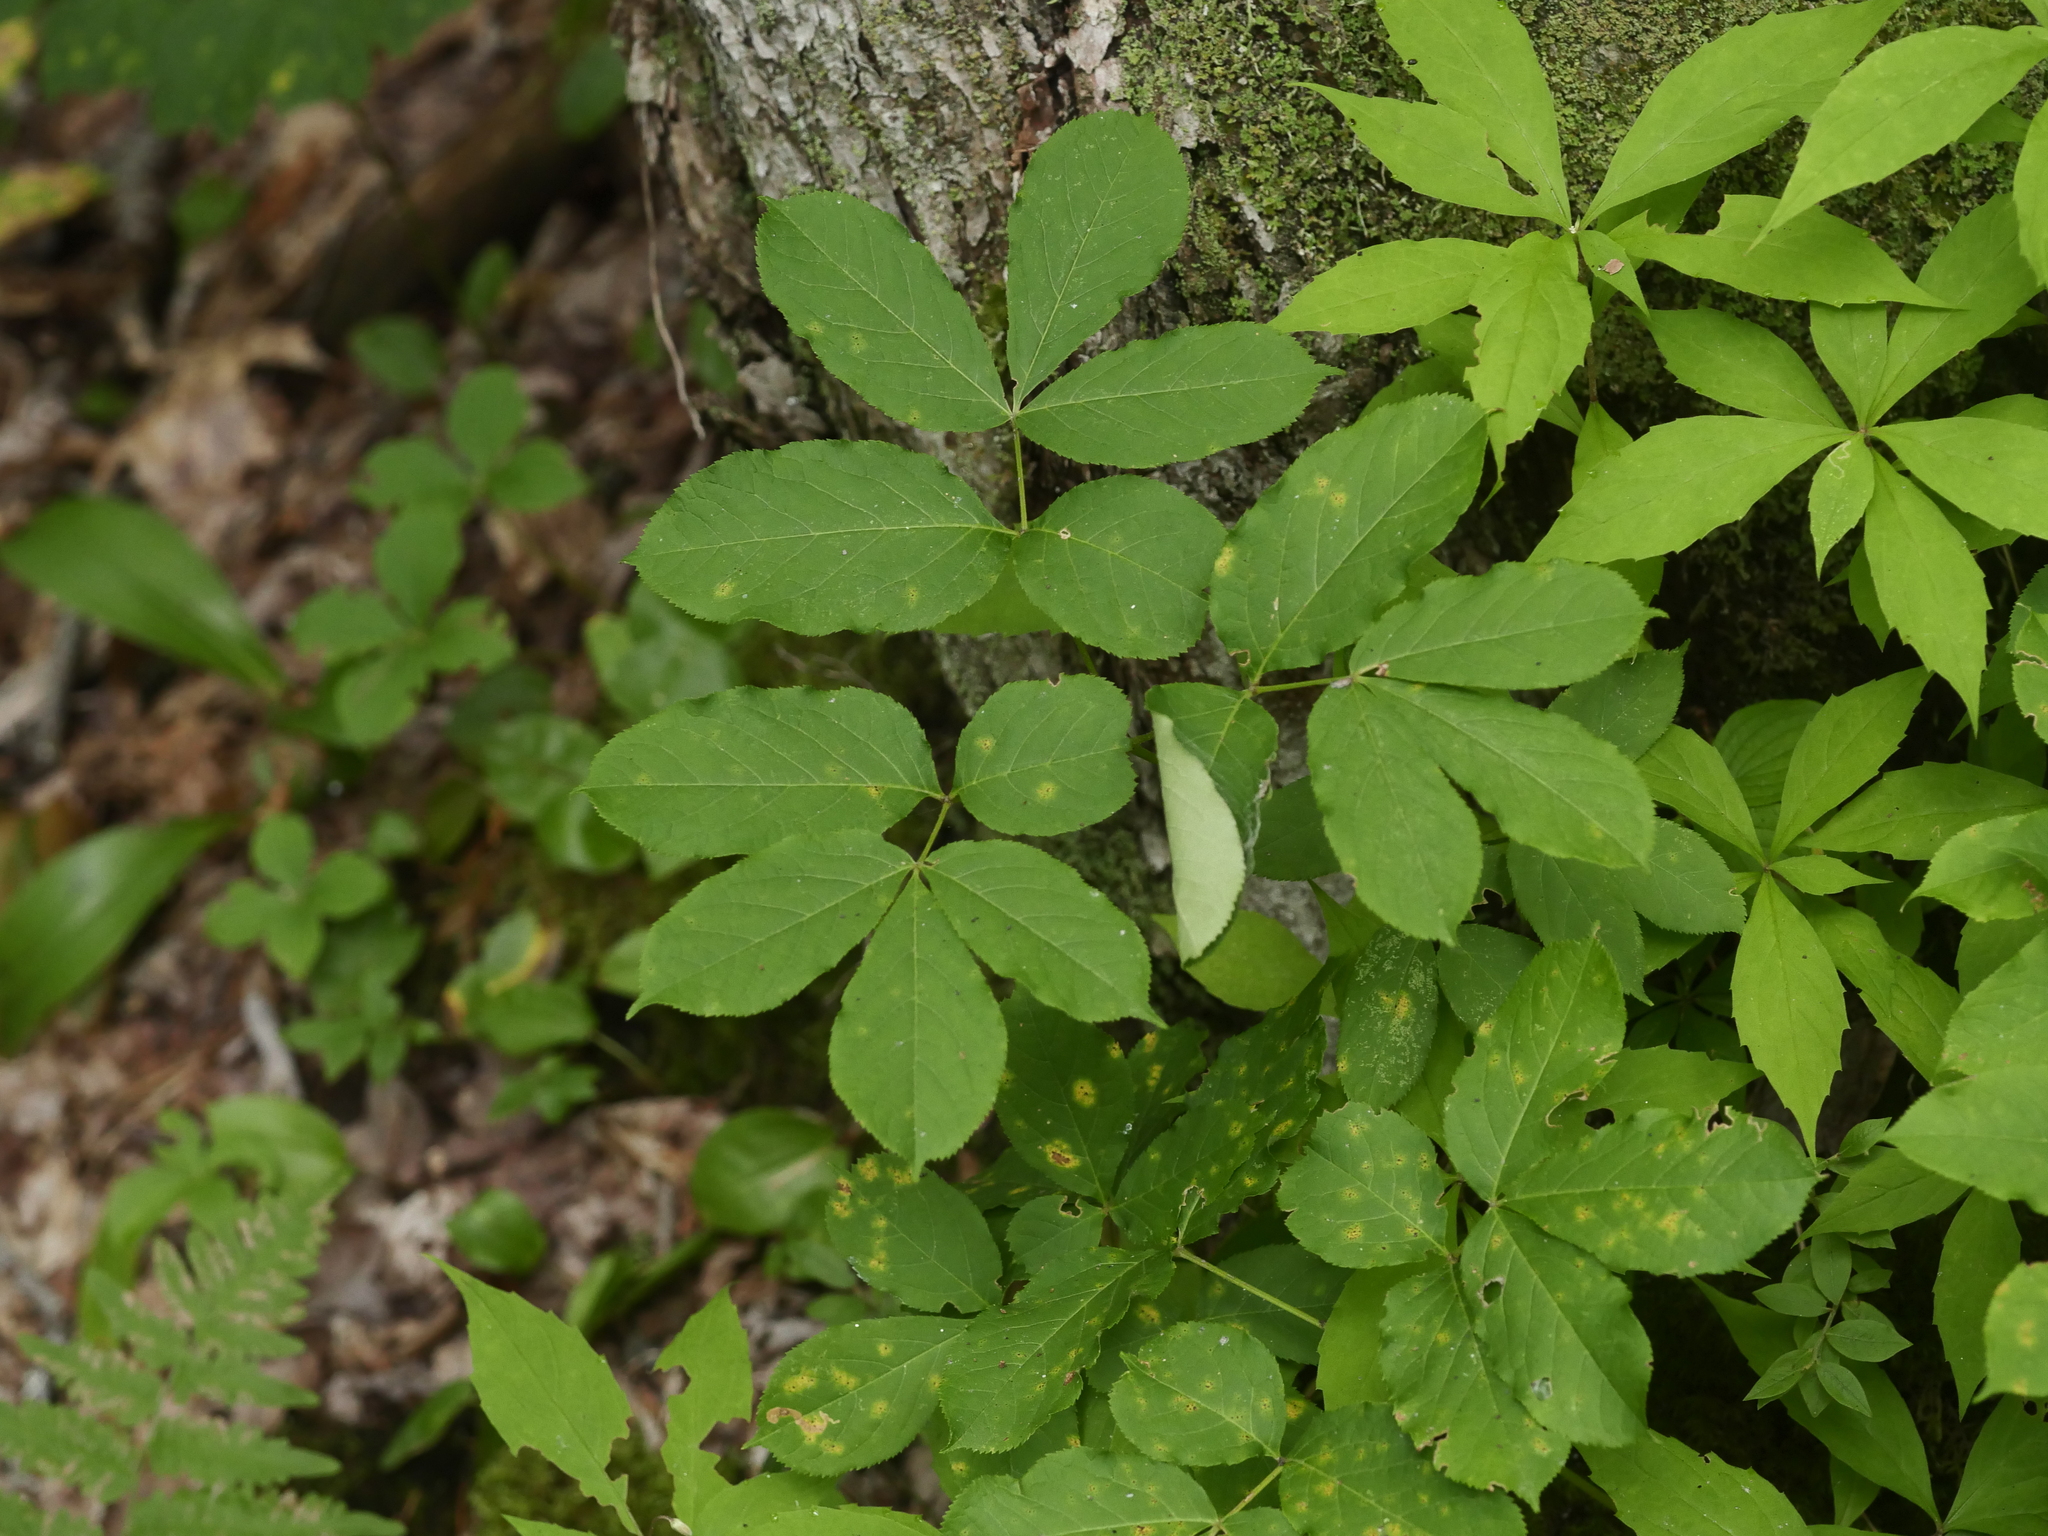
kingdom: Plantae
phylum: Tracheophyta
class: Magnoliopsida
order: Apiales
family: Araliaceae
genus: Aralia
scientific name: Aralia nudicaulis
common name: Wild sarsaparilla
